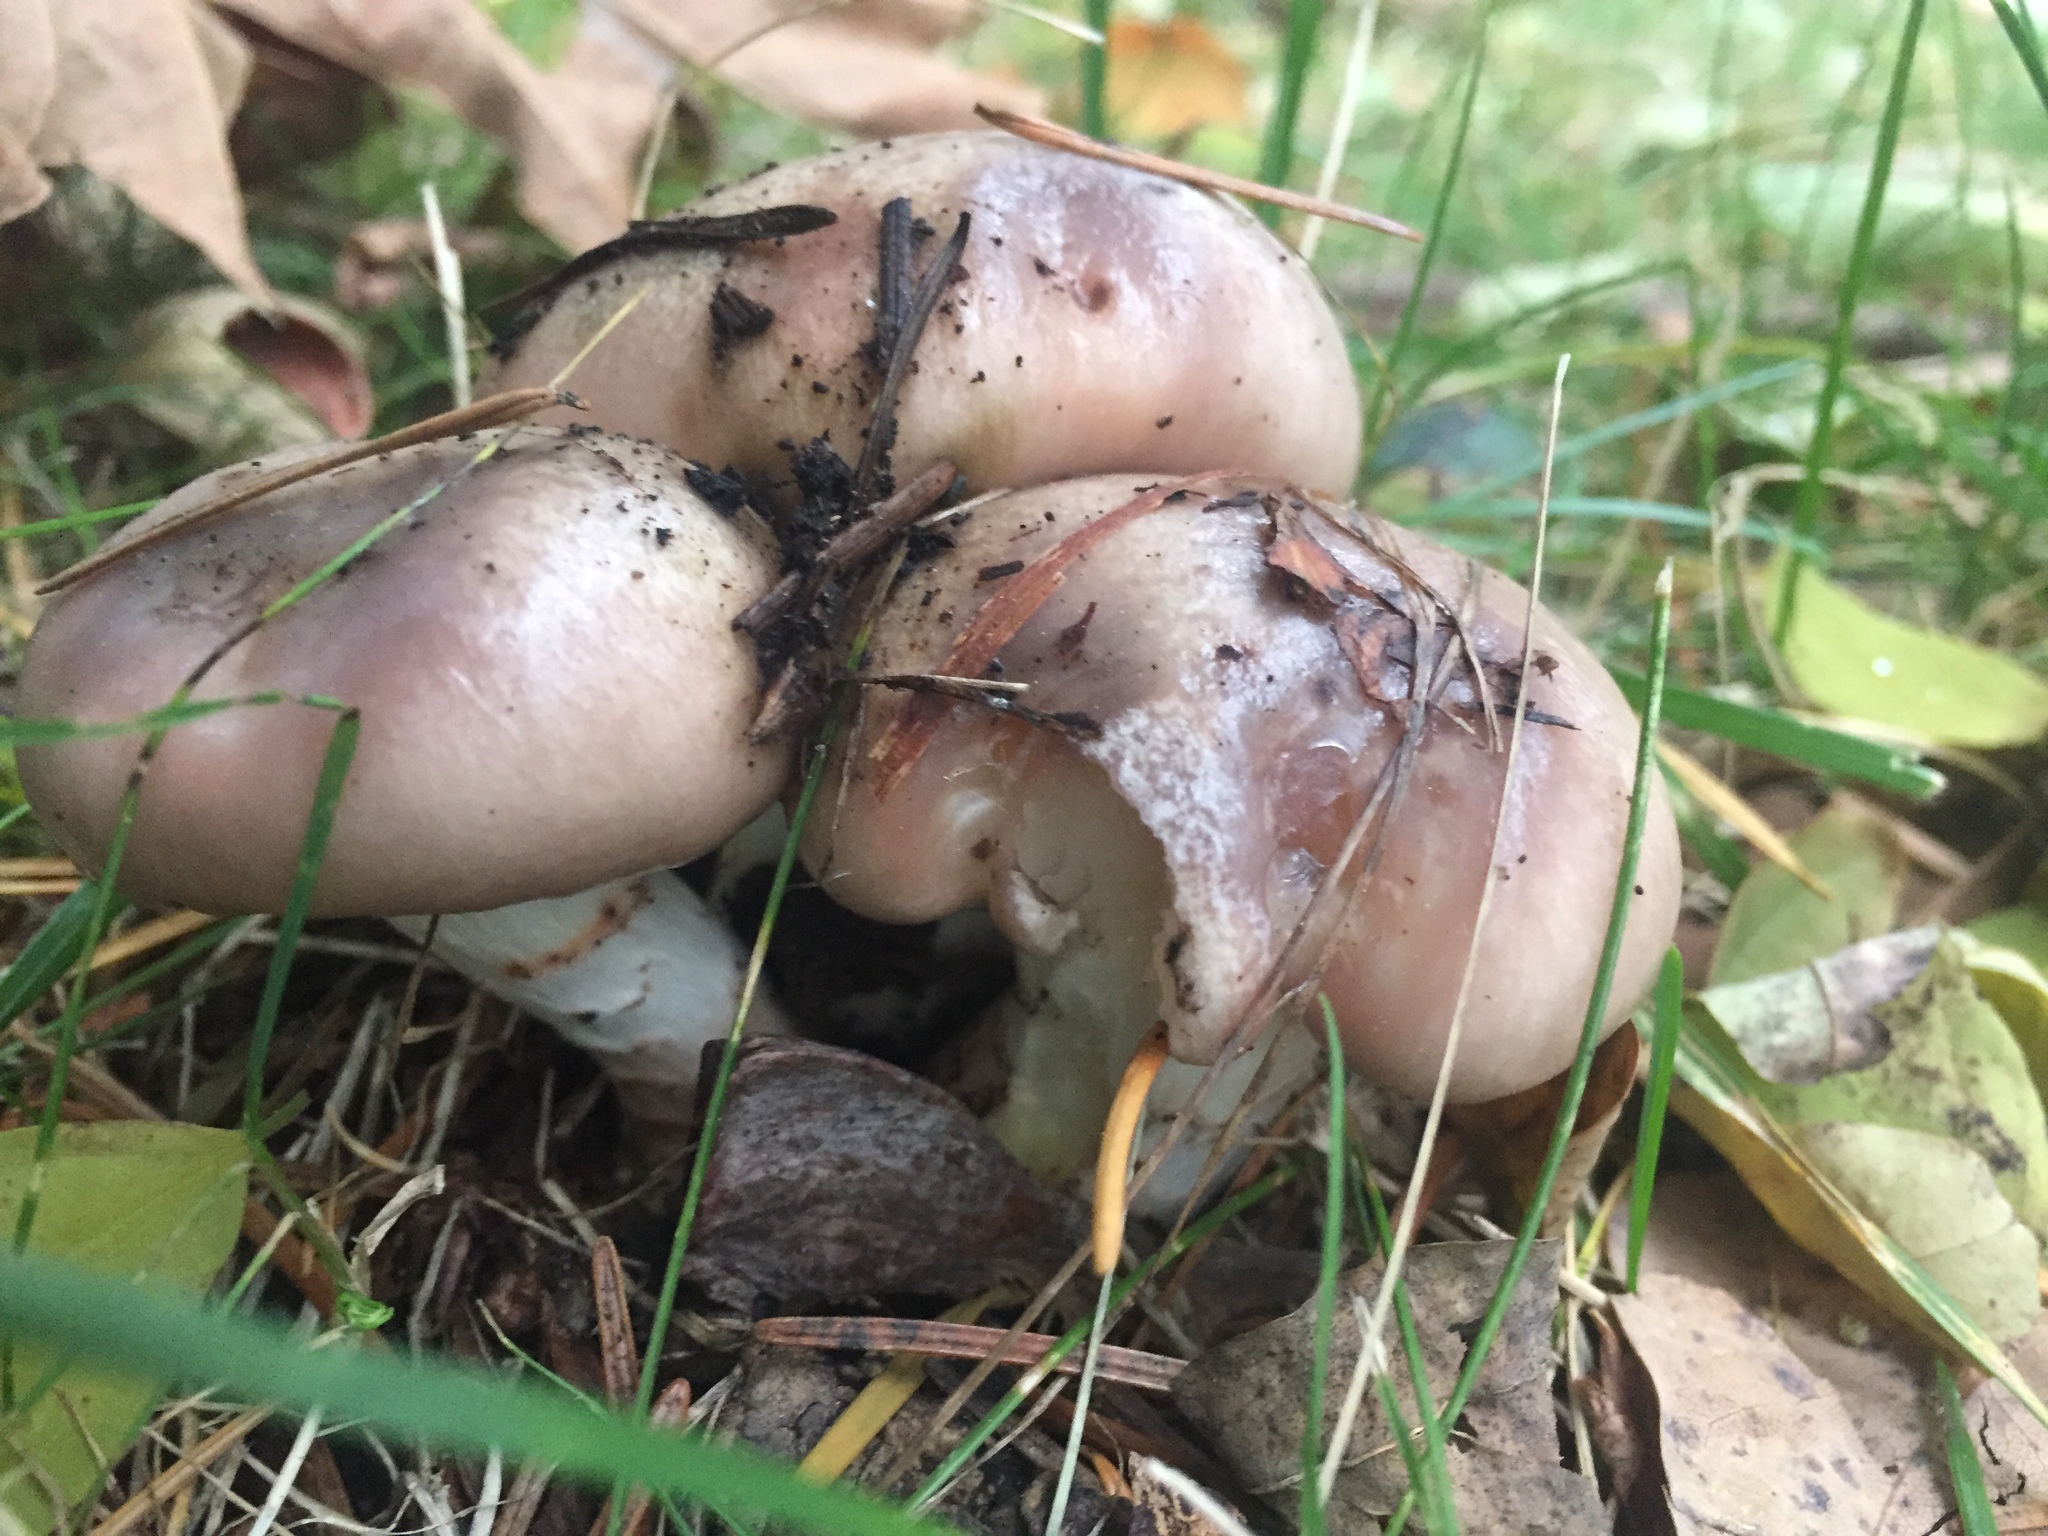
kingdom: Fungi
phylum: Basidiomycota
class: Agaricomycetes
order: Boletales
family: Gomphidiaceae
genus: Gomphidius
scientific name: Gomphidius oregonensis
